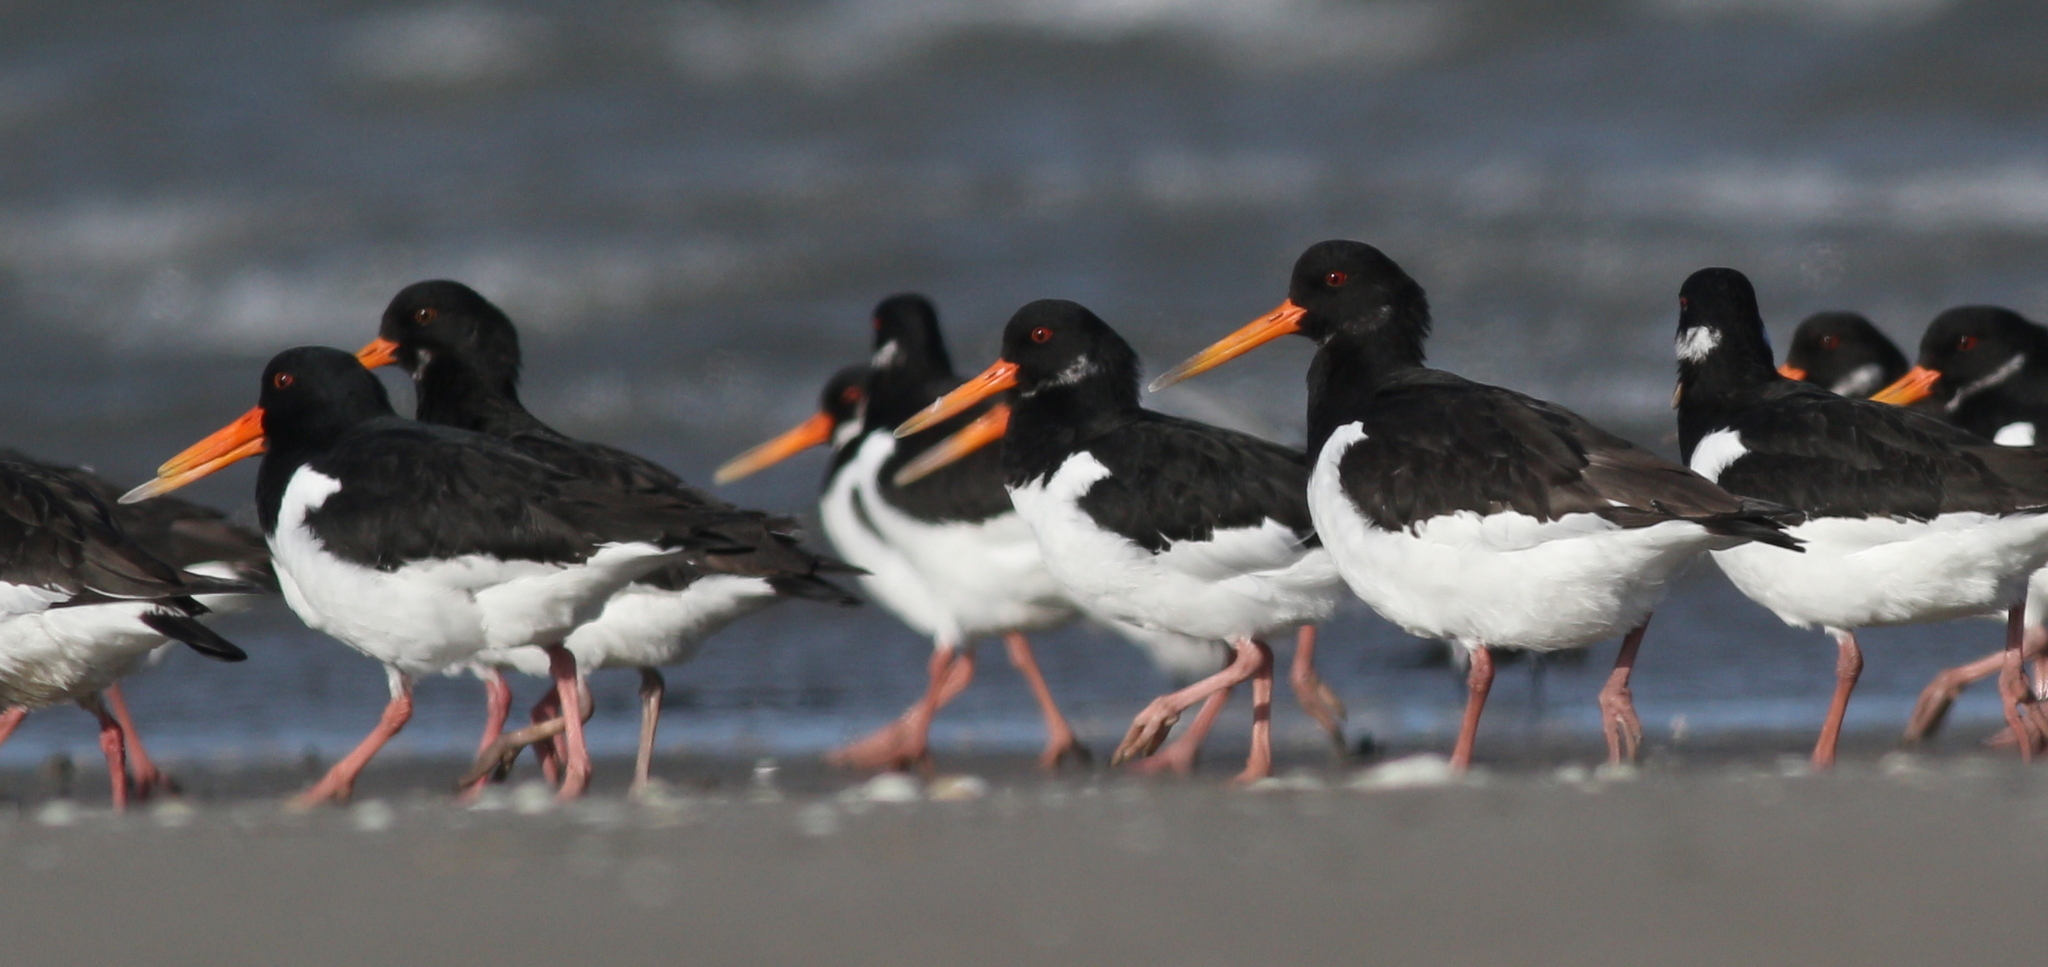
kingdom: Animalia
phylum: Chordata
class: Aves
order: Charadriiformes
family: Haematopodidae
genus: Haematopus
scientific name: Haematopus ostralegus
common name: Eurasian oystercatcher
